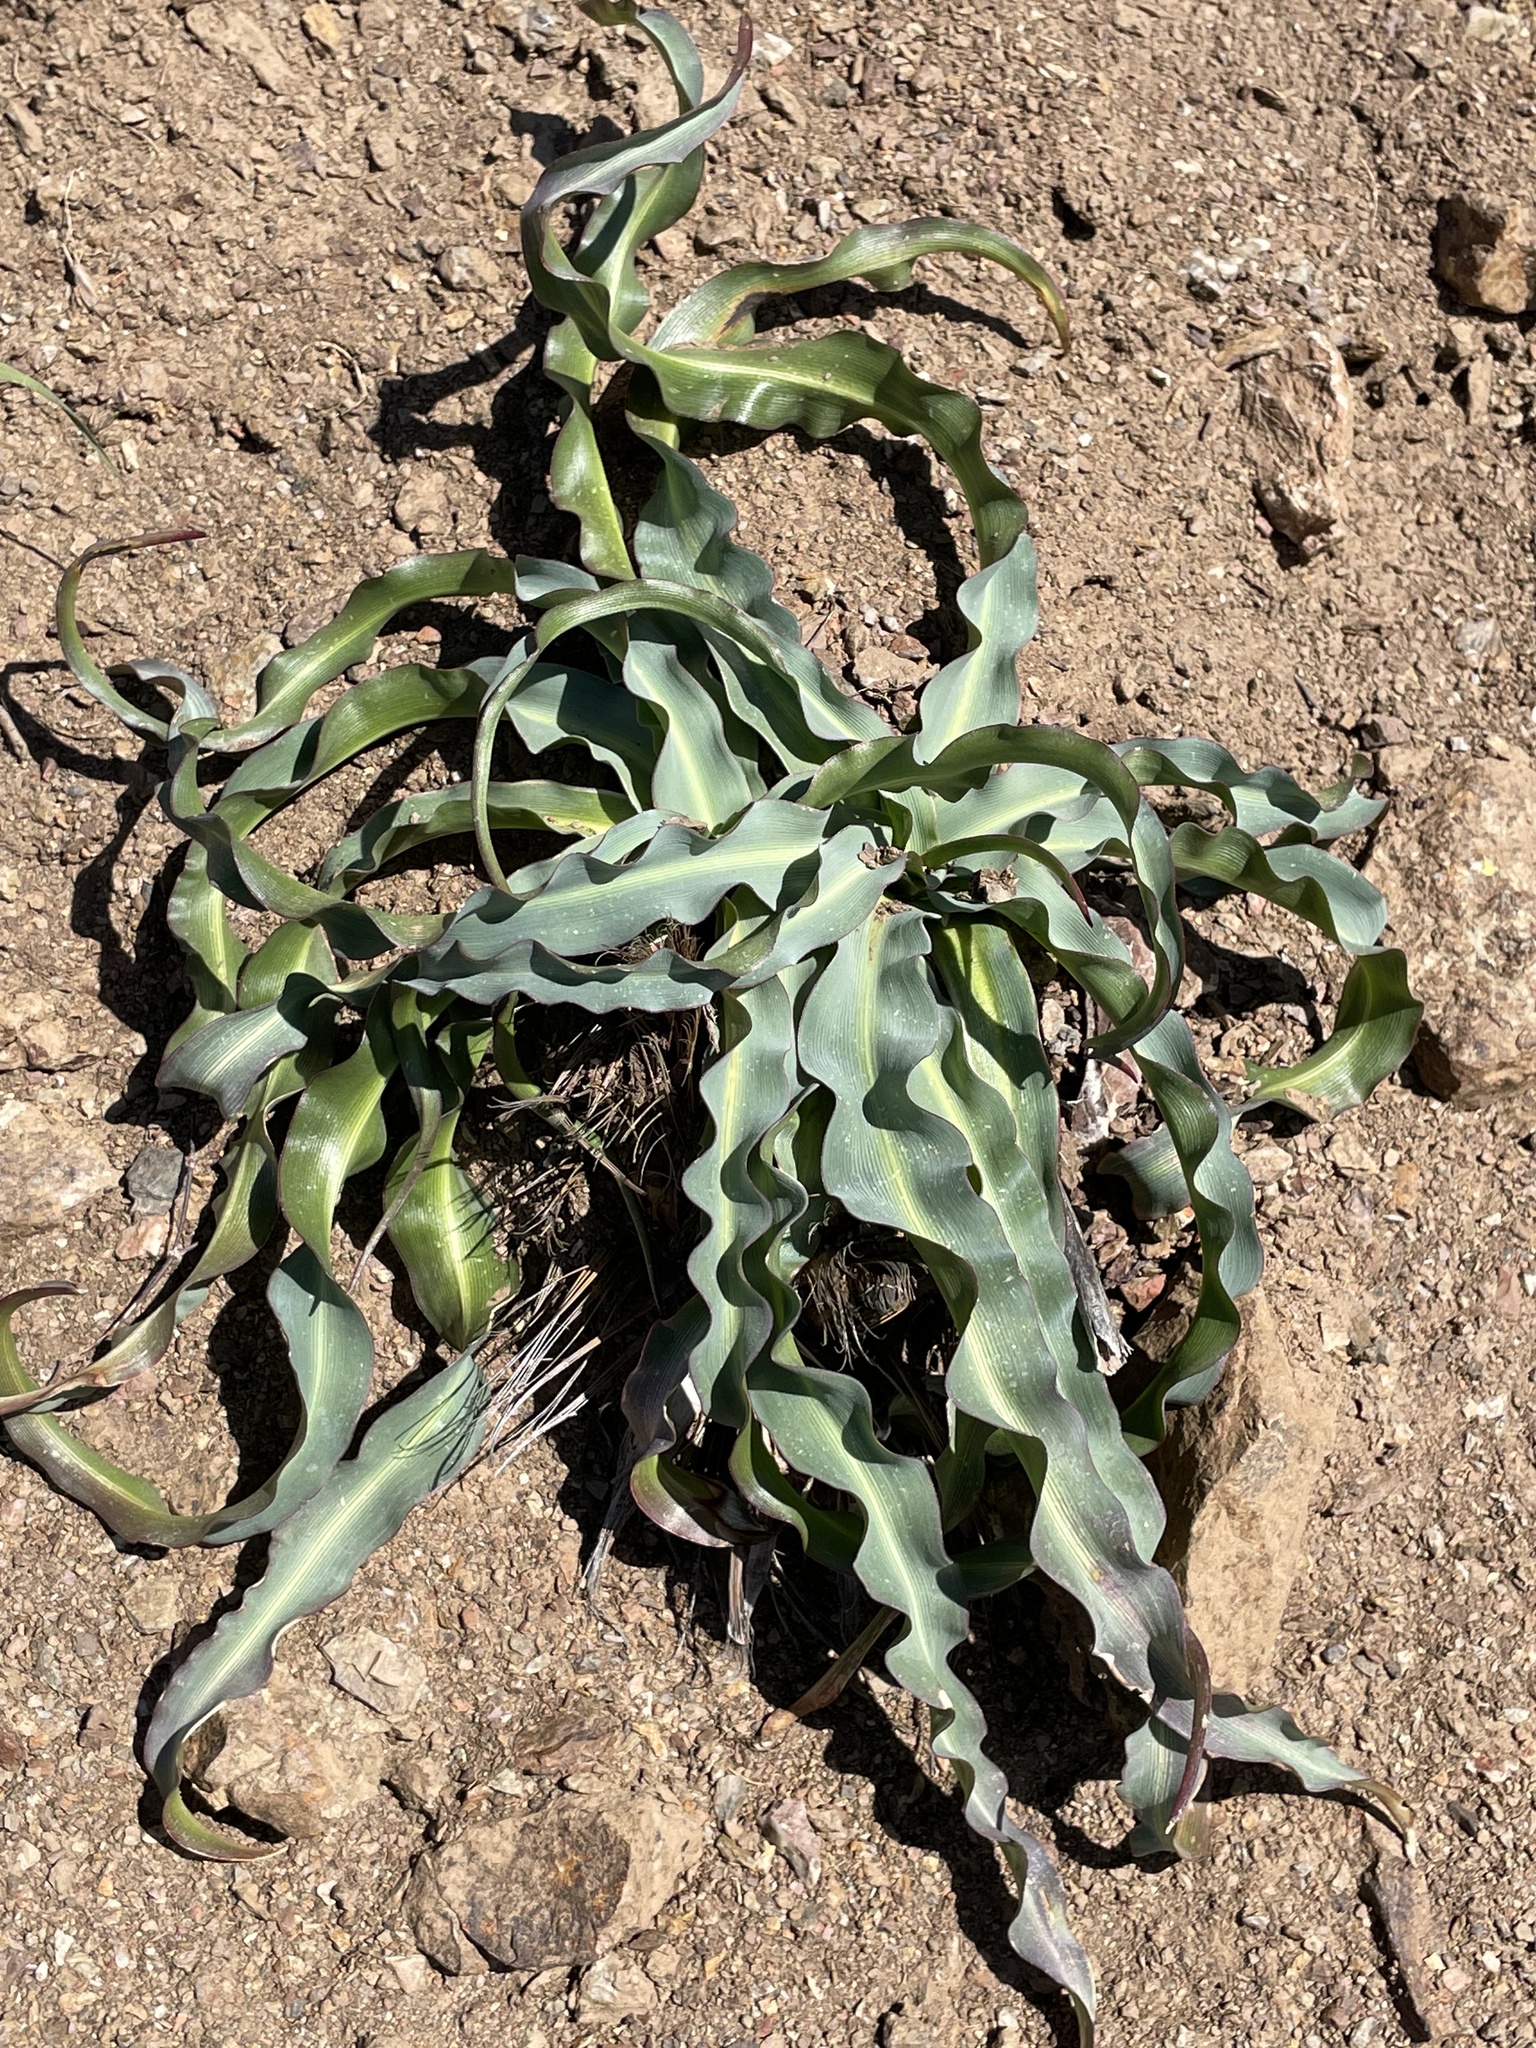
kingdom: Plantae
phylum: Tracheophyta
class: Liliopsida
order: Asparagales
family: Asparagaceae
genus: Chlorogalum
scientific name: Chlorogalum pomeridianum
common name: Amole
